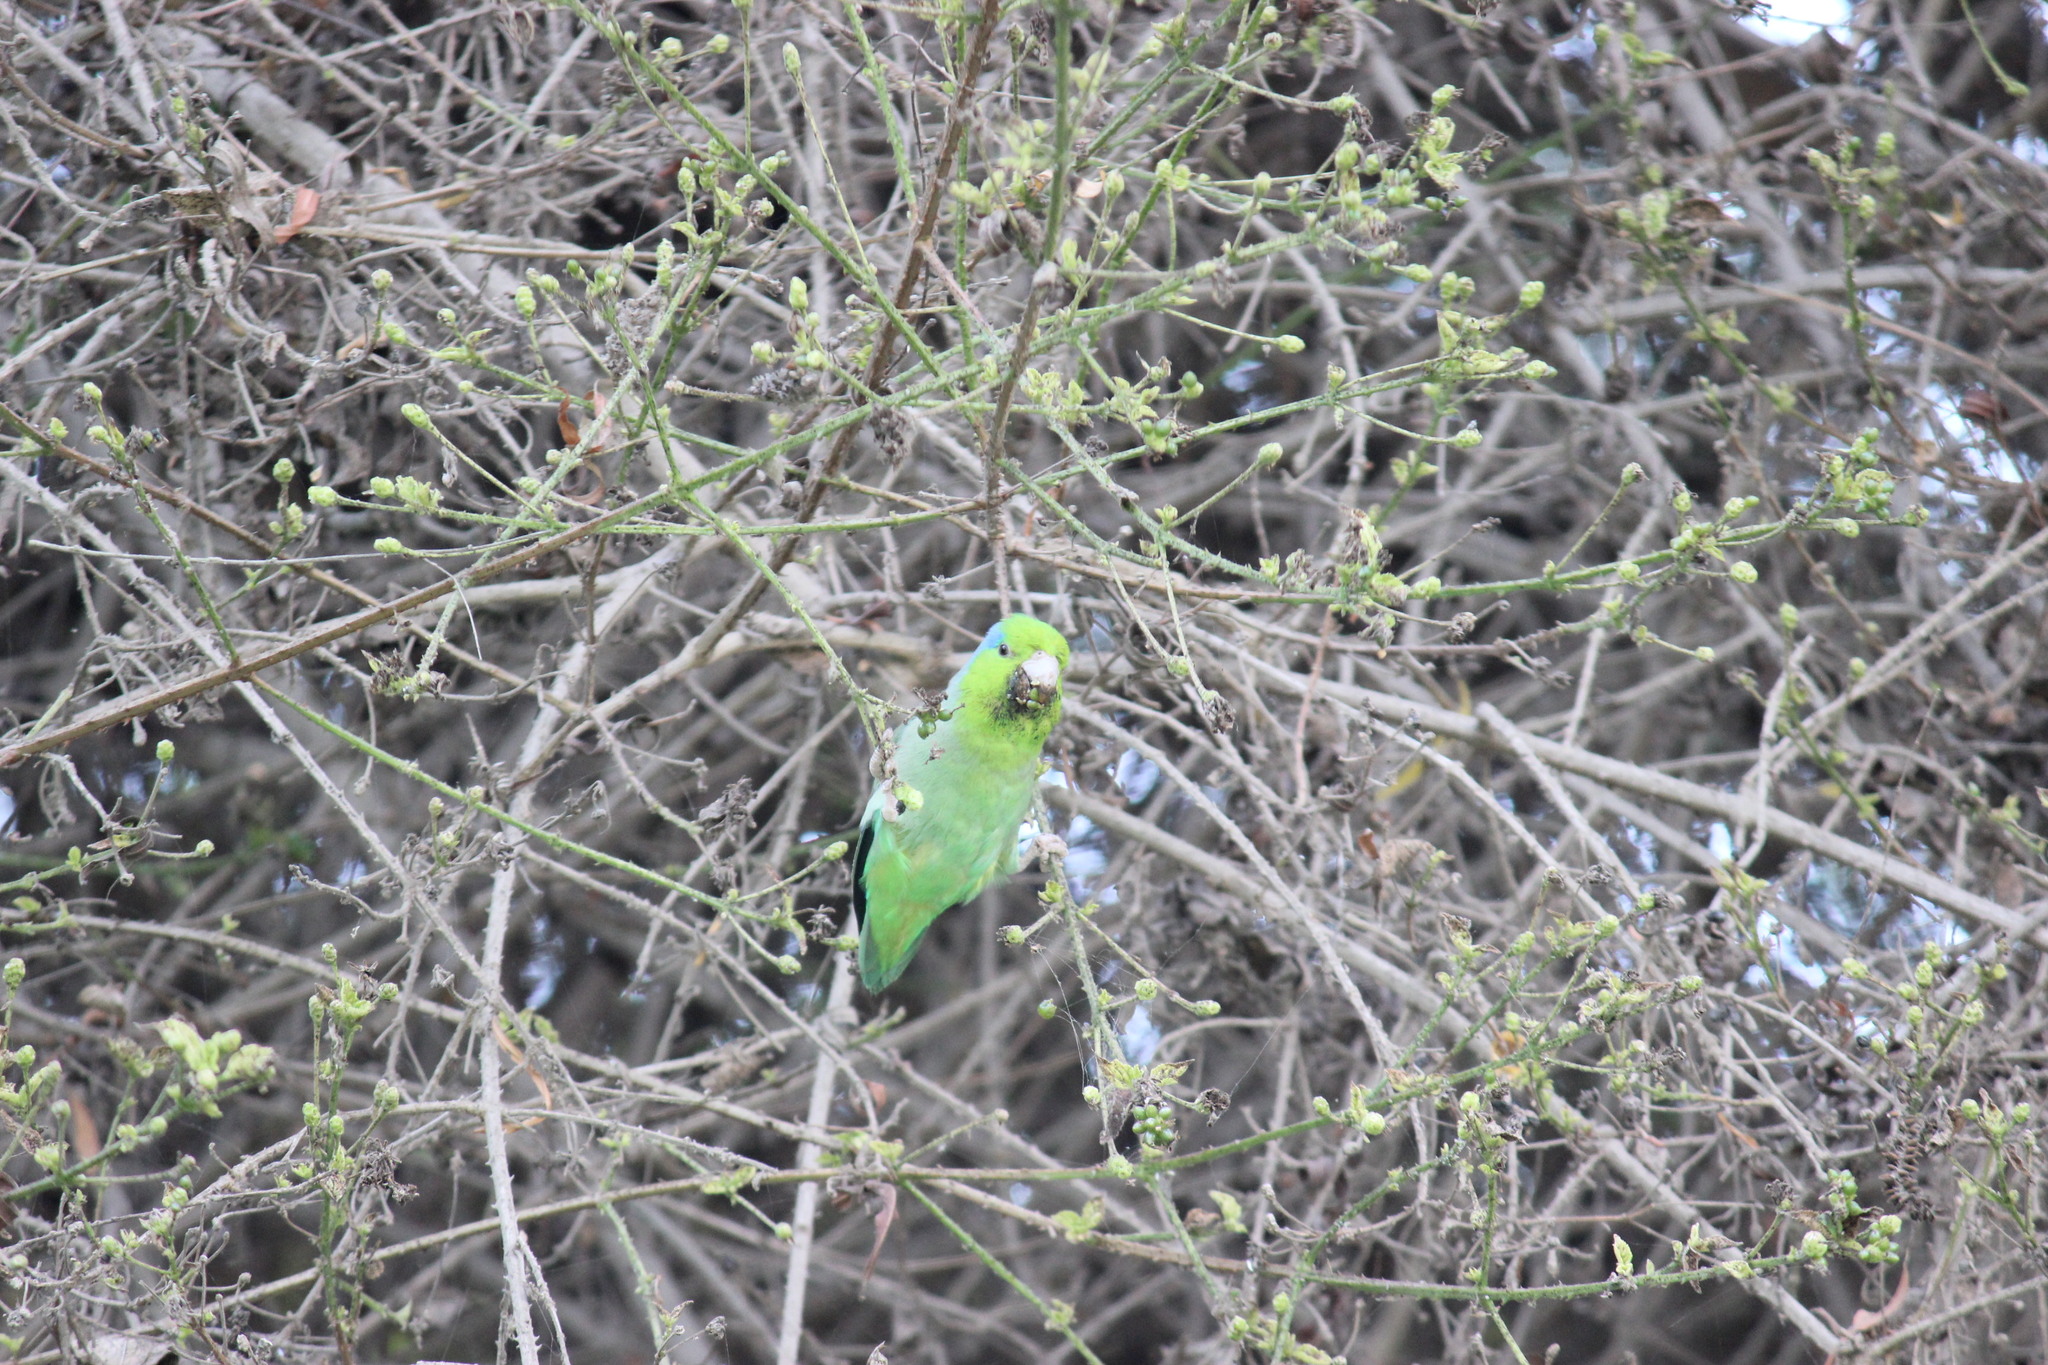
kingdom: Animalia
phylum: Chordata
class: Aves
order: Psittaciformes
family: Psittacidae
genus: Forpus
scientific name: Forpus coelestis
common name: Pacific parrotlet
